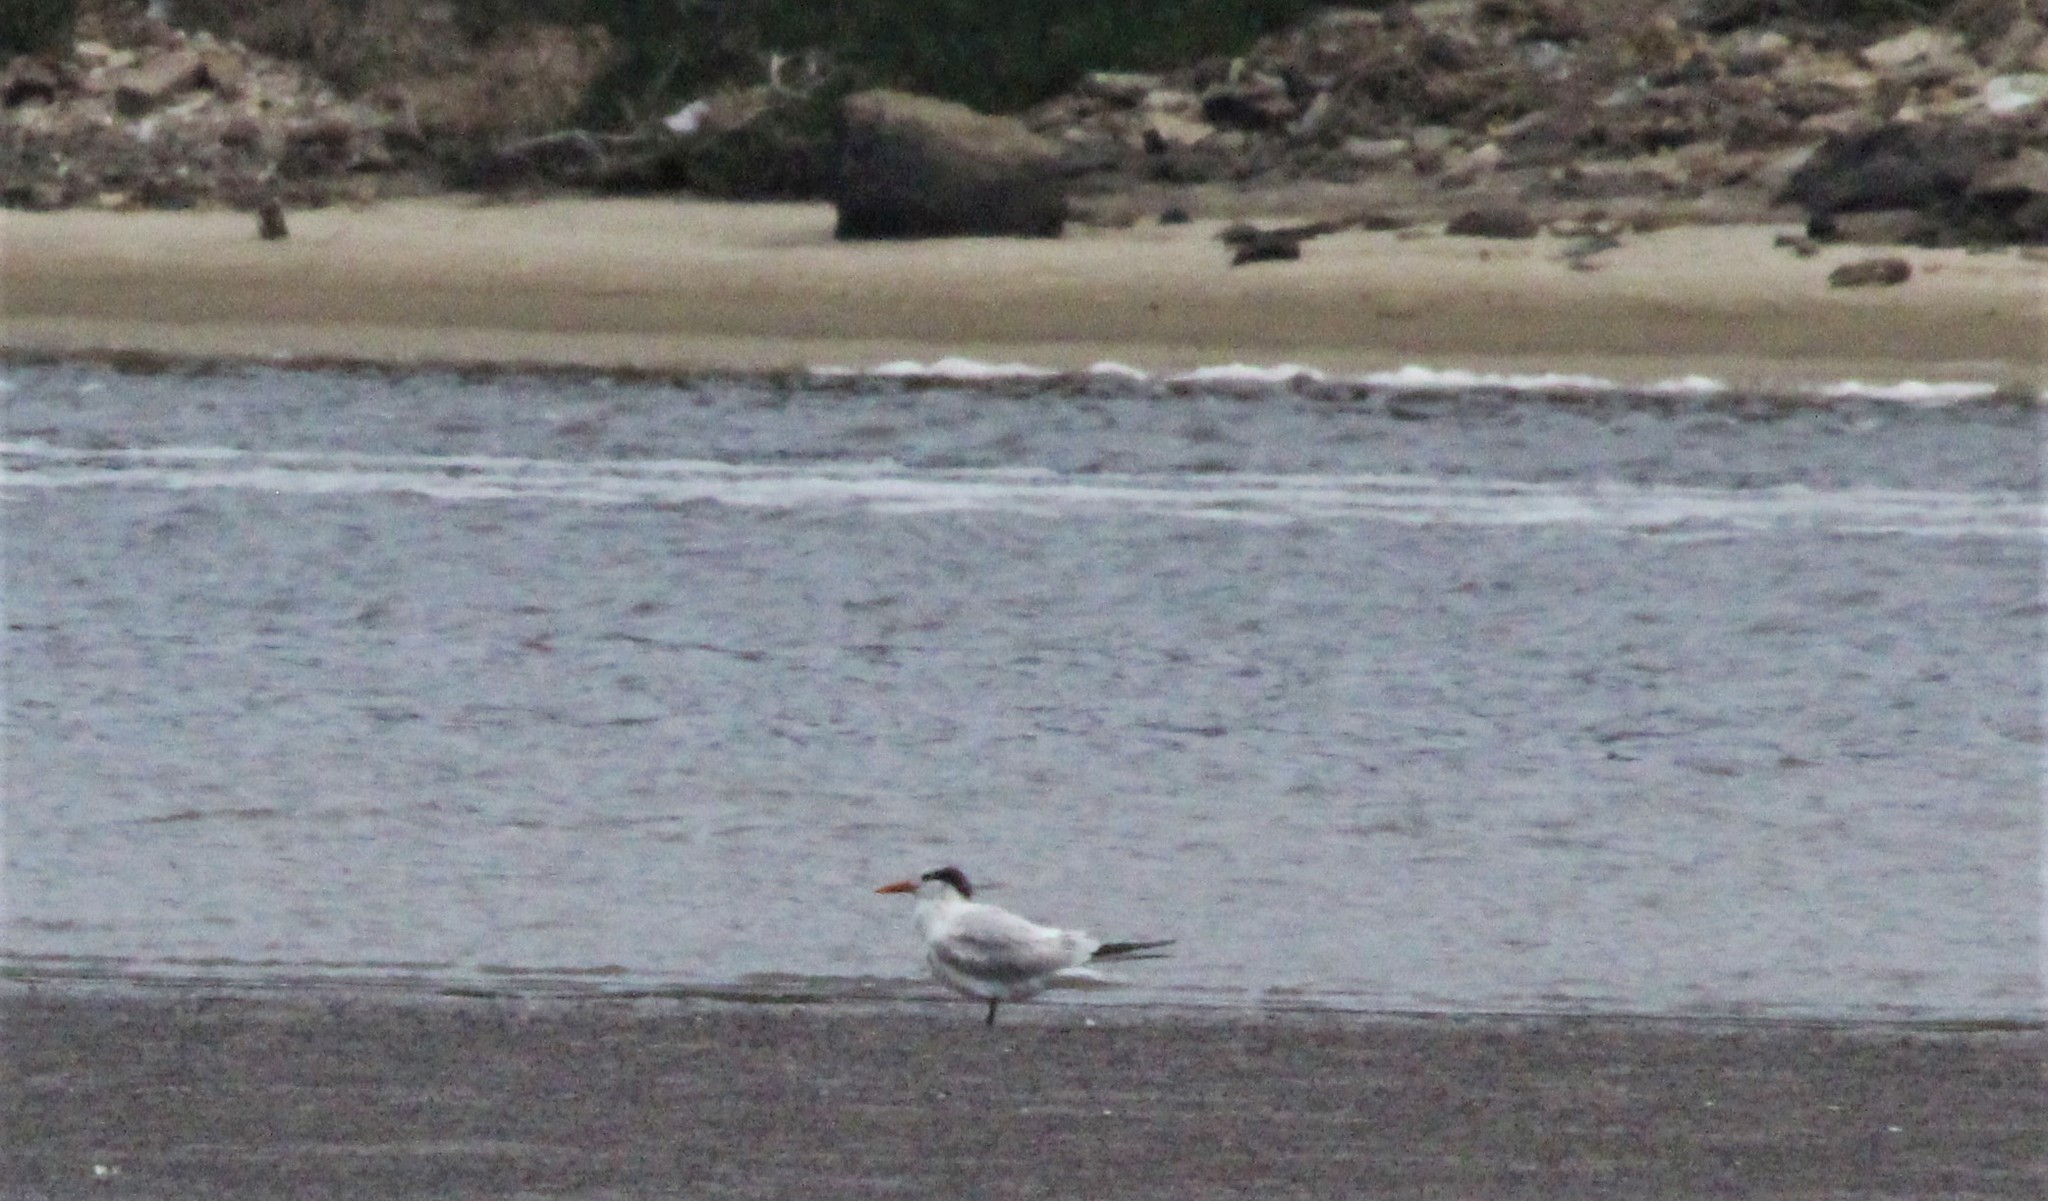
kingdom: Animalia
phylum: Chordata
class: Aves
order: Charadriiformes
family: Laridae
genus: Thalasseus
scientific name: Thalasseus maximus
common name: Royal tern
